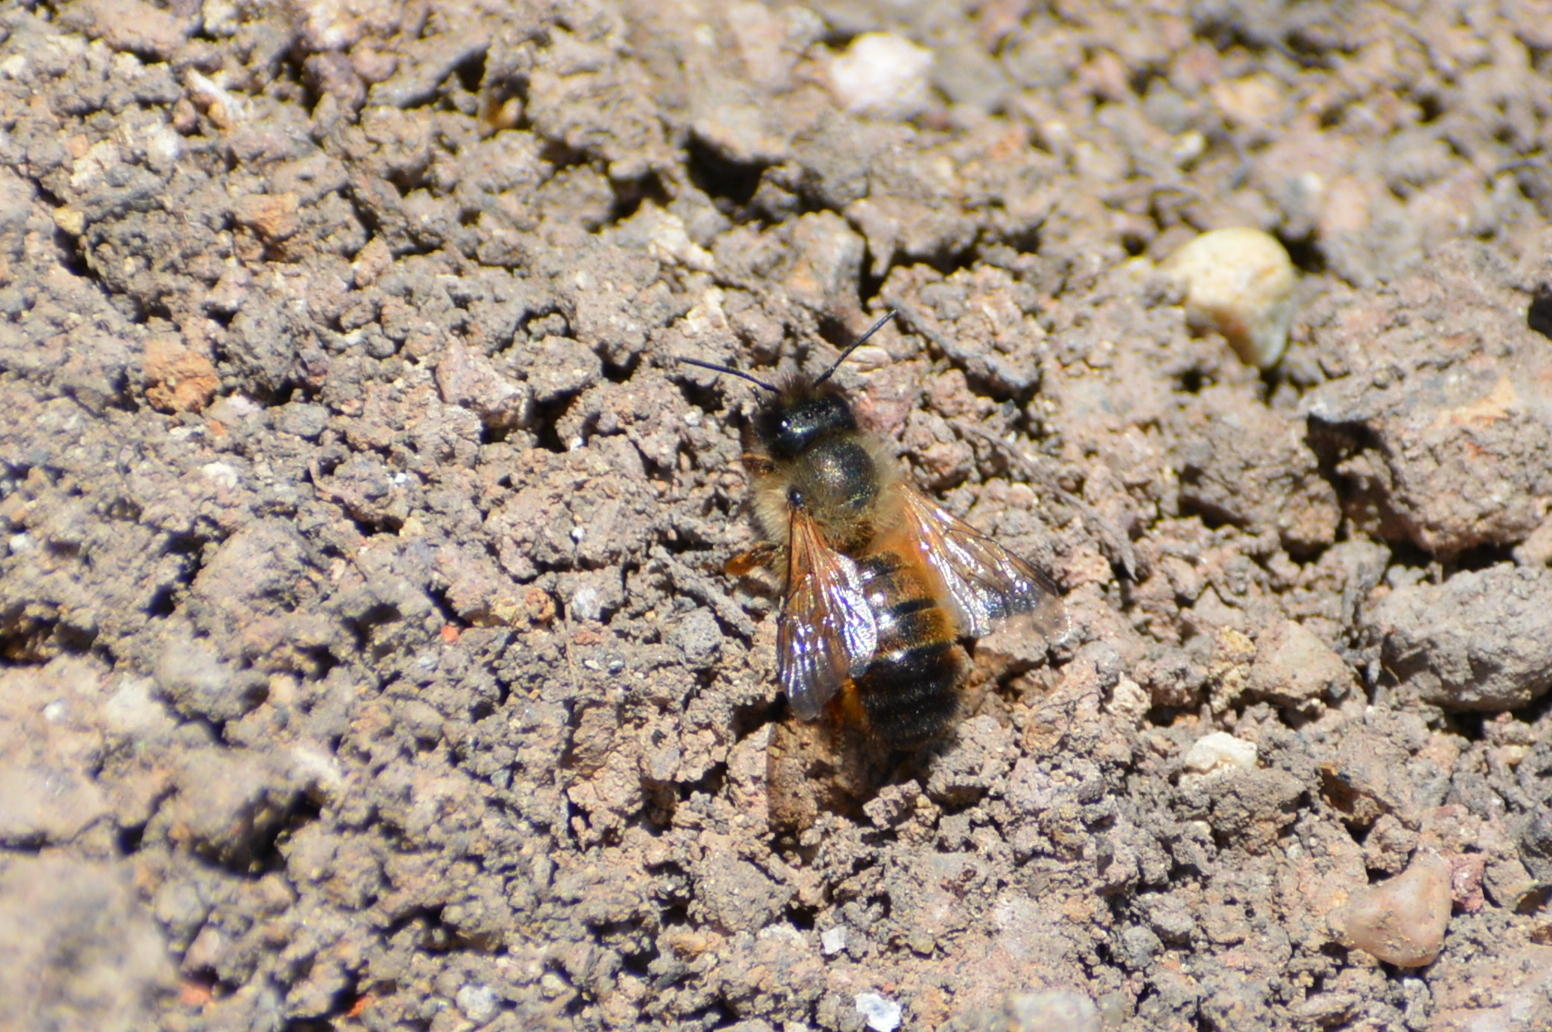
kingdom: Animalia
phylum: Arthropoda
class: Insecta
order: Hymenoptera
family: Megachilidae
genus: Osmia
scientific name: Osmia bicornis
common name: Red mason bee
